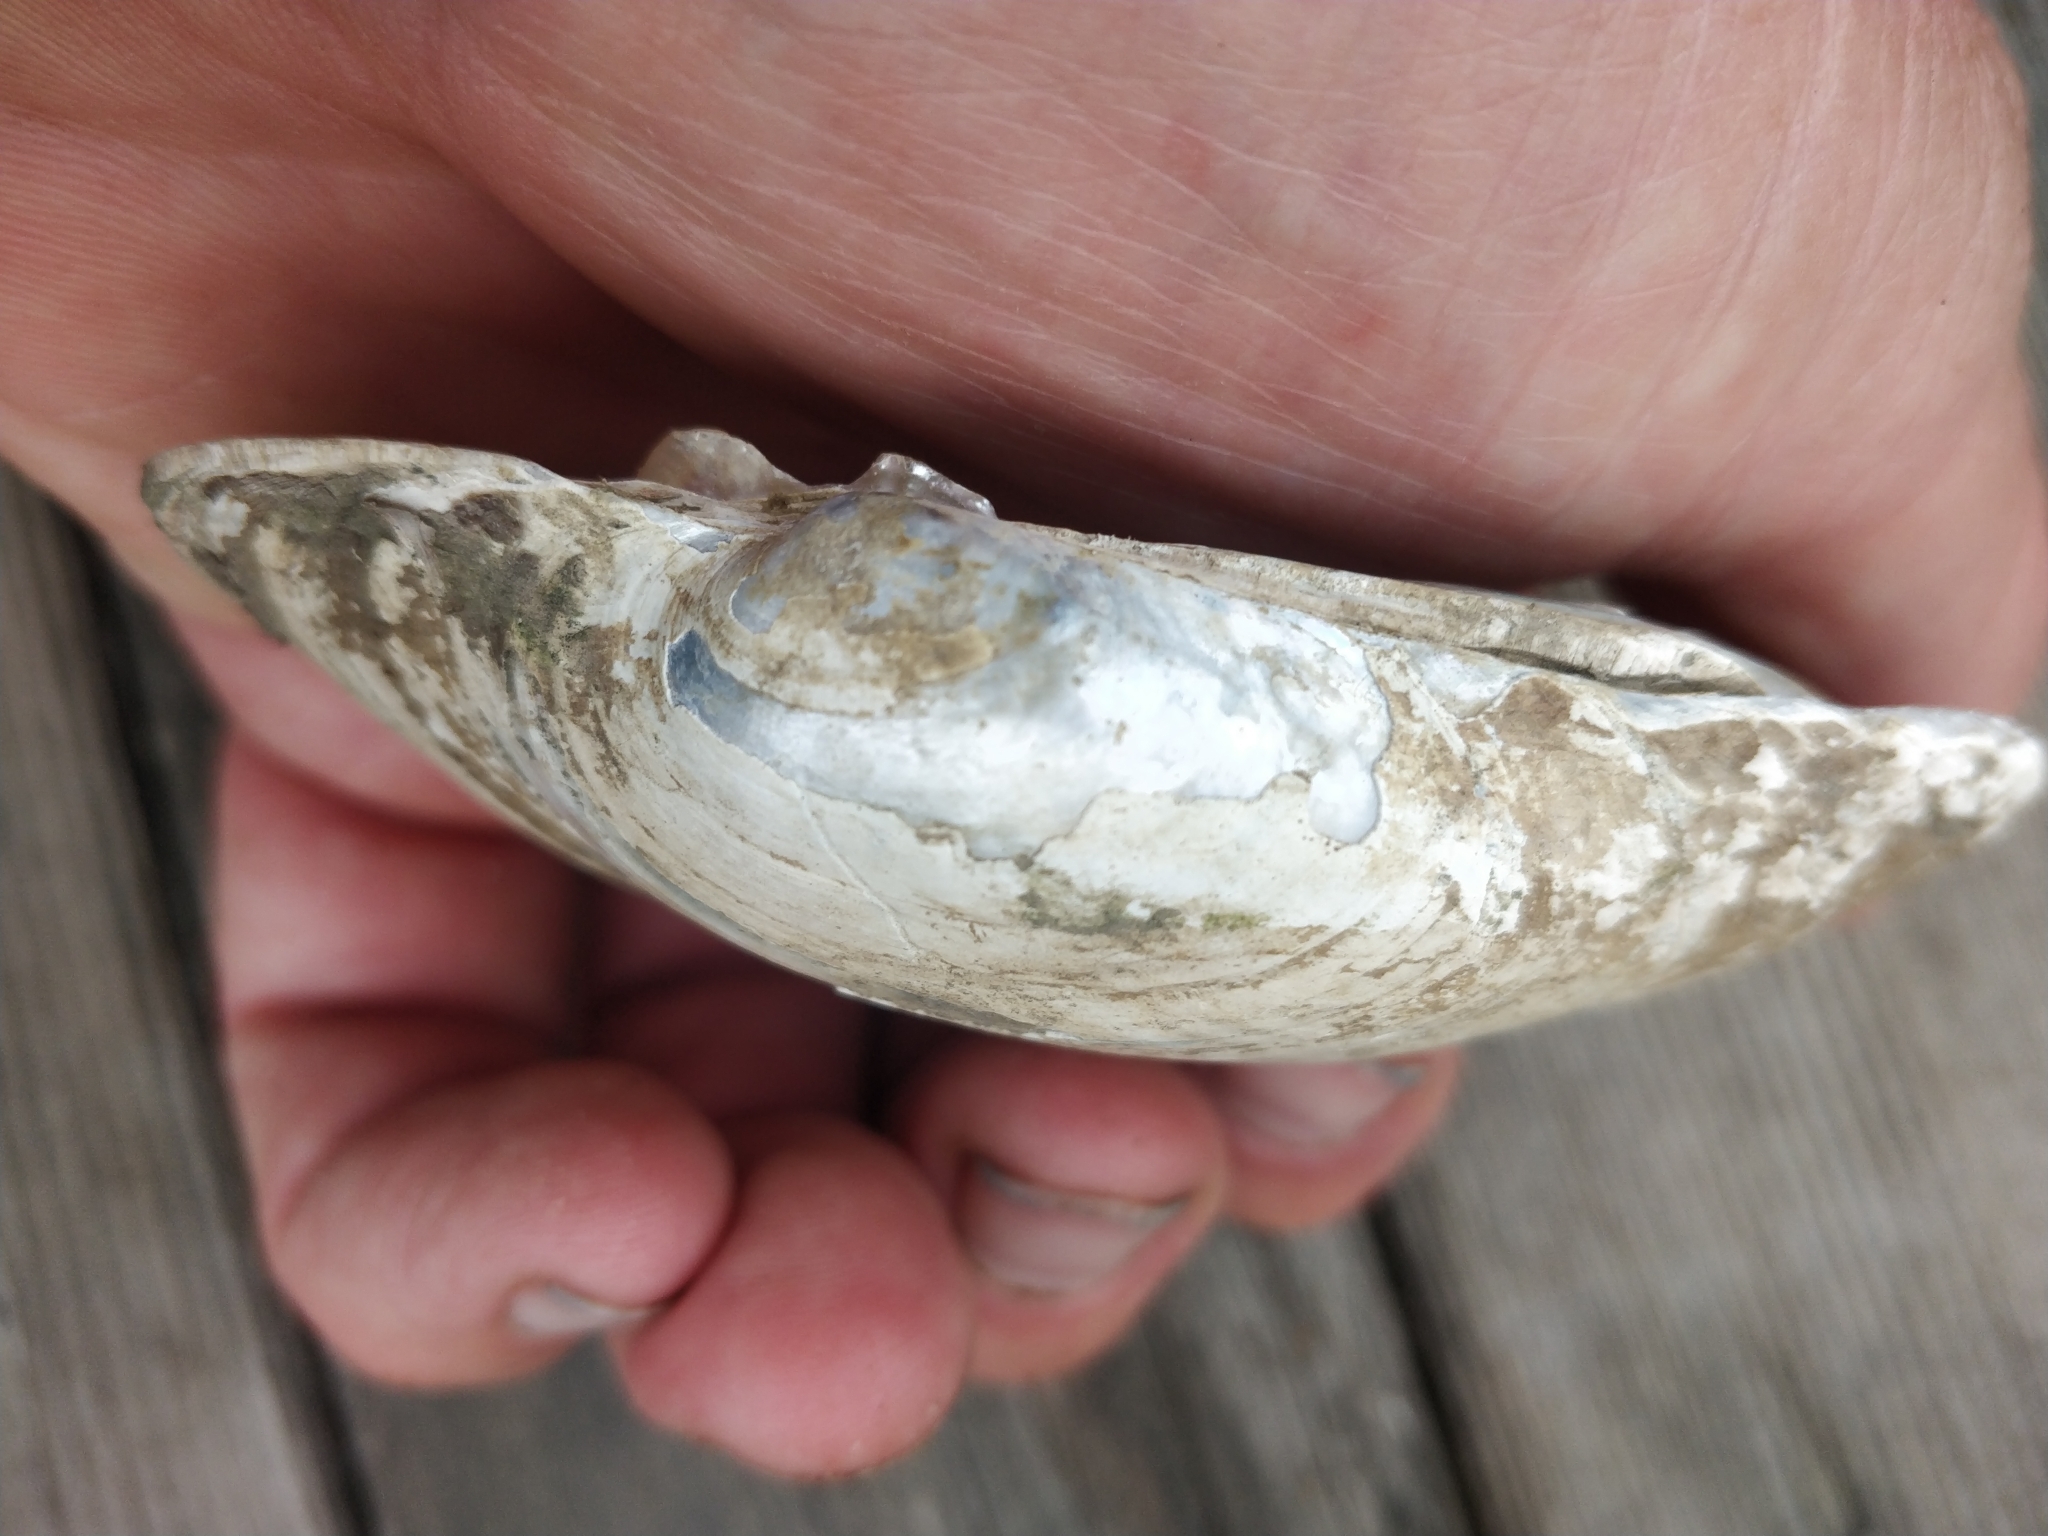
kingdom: Animalia
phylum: Mollusca
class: Bivalvia
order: Unionida
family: Unionidae
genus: Lampsilis
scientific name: Lampsilis cardium
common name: Plain pocketbook
